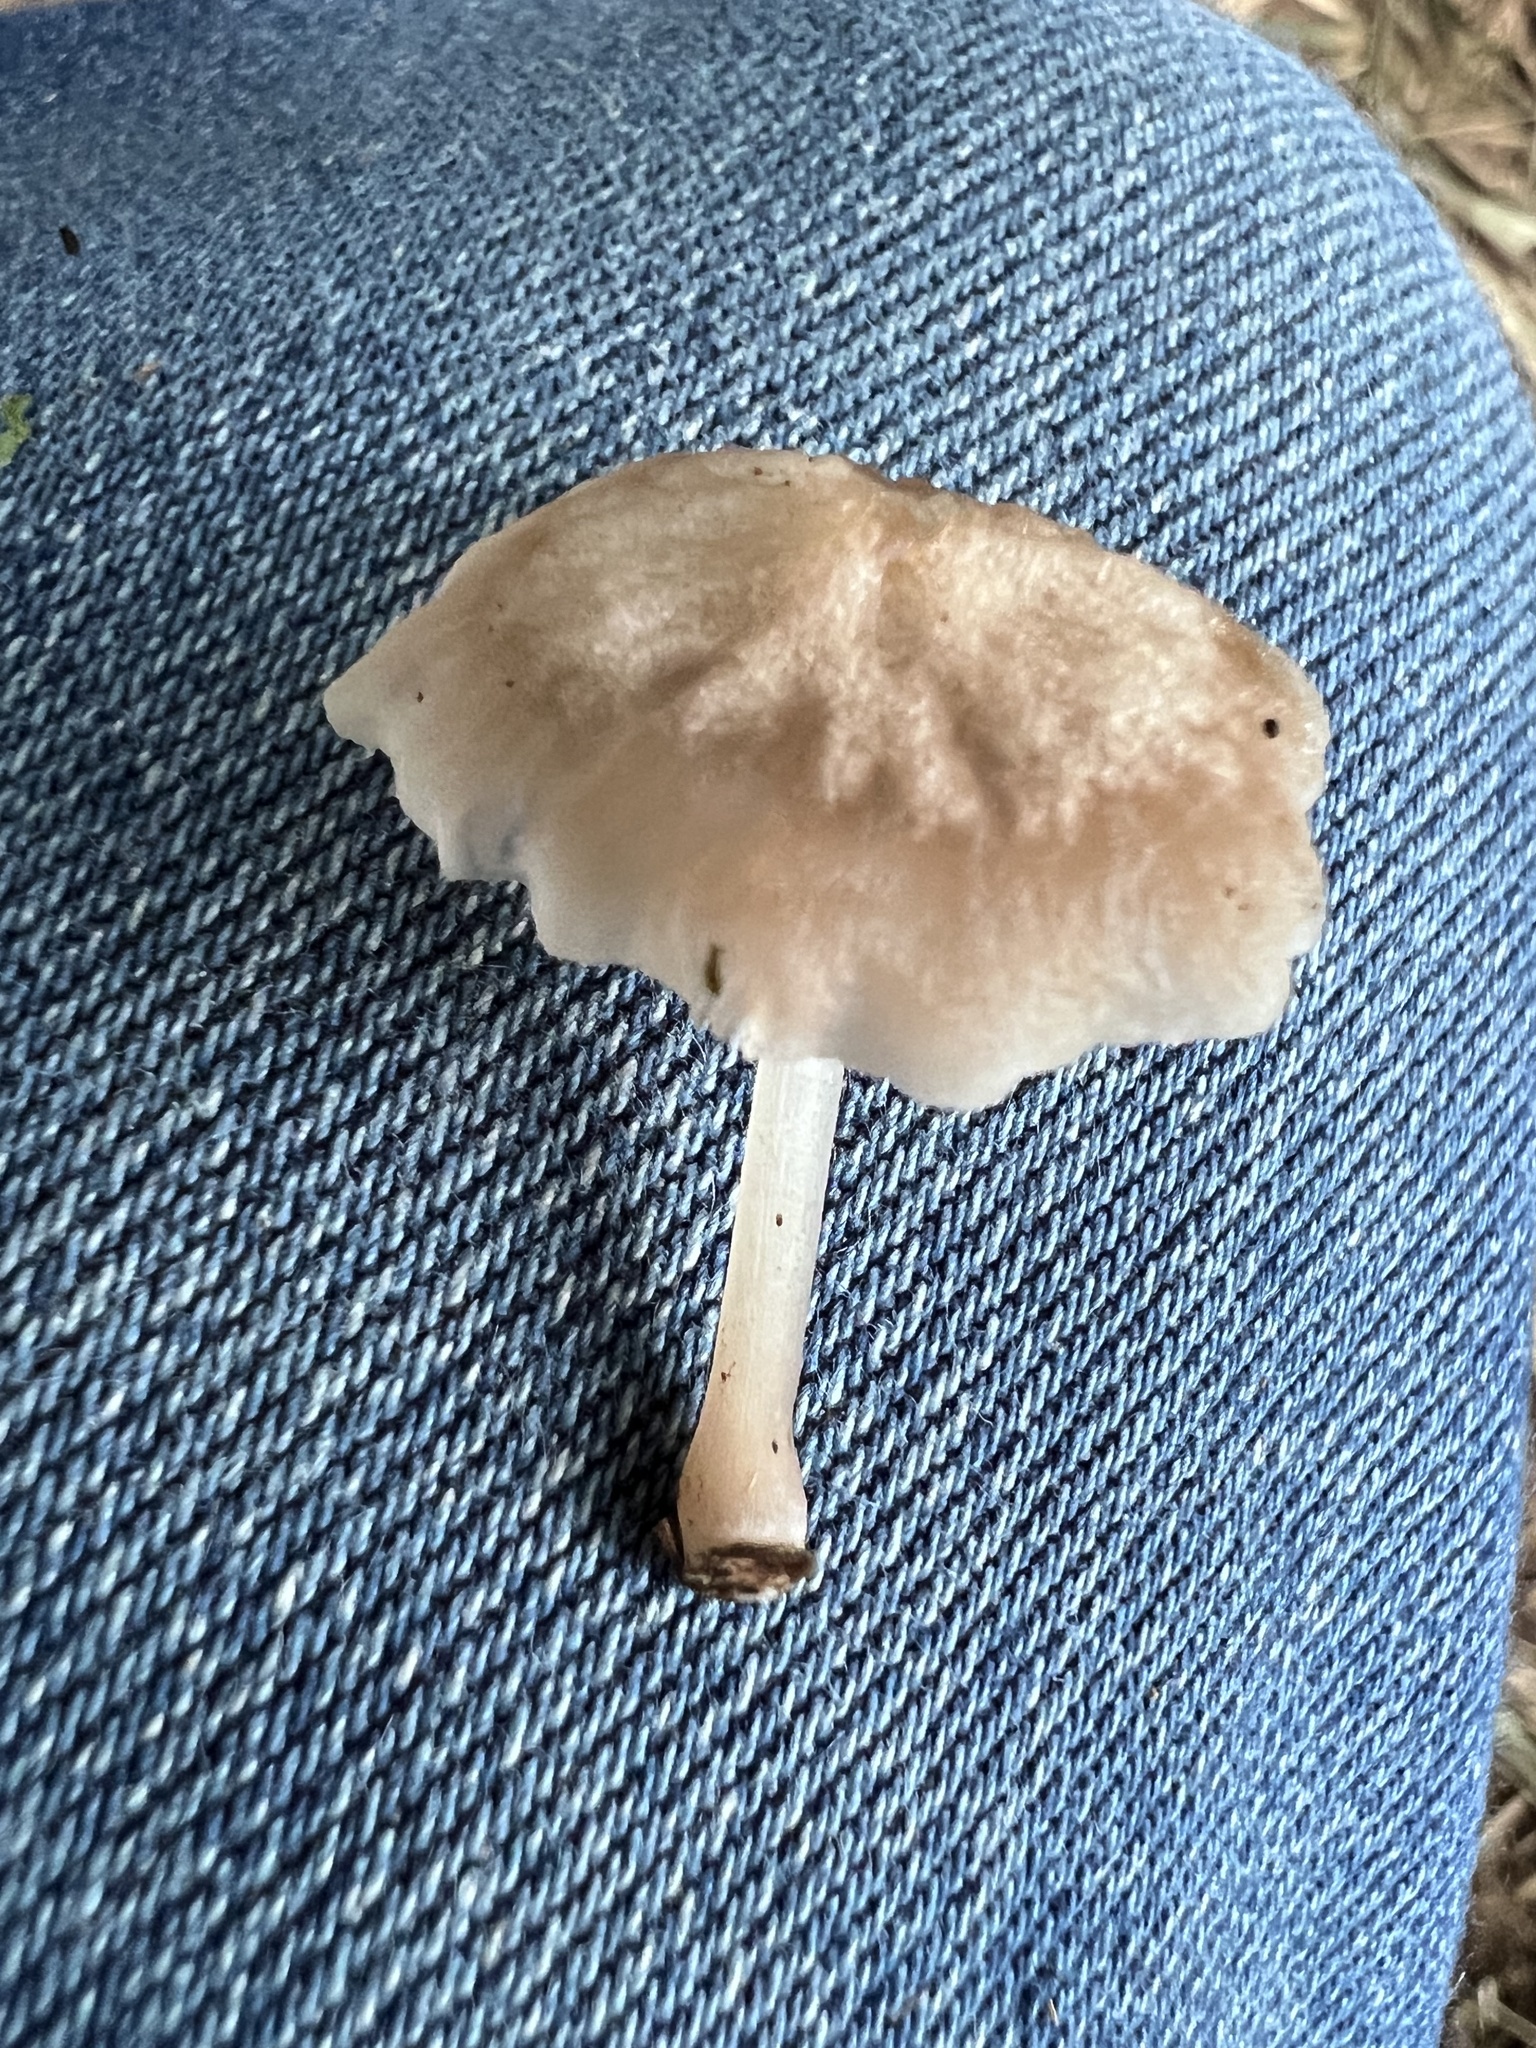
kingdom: Fungi
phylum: Basidiomycota
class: Agaricomycetes
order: Agaricales
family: Mycenaceae
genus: Filoboletus
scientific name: Filoboletus gracilis
